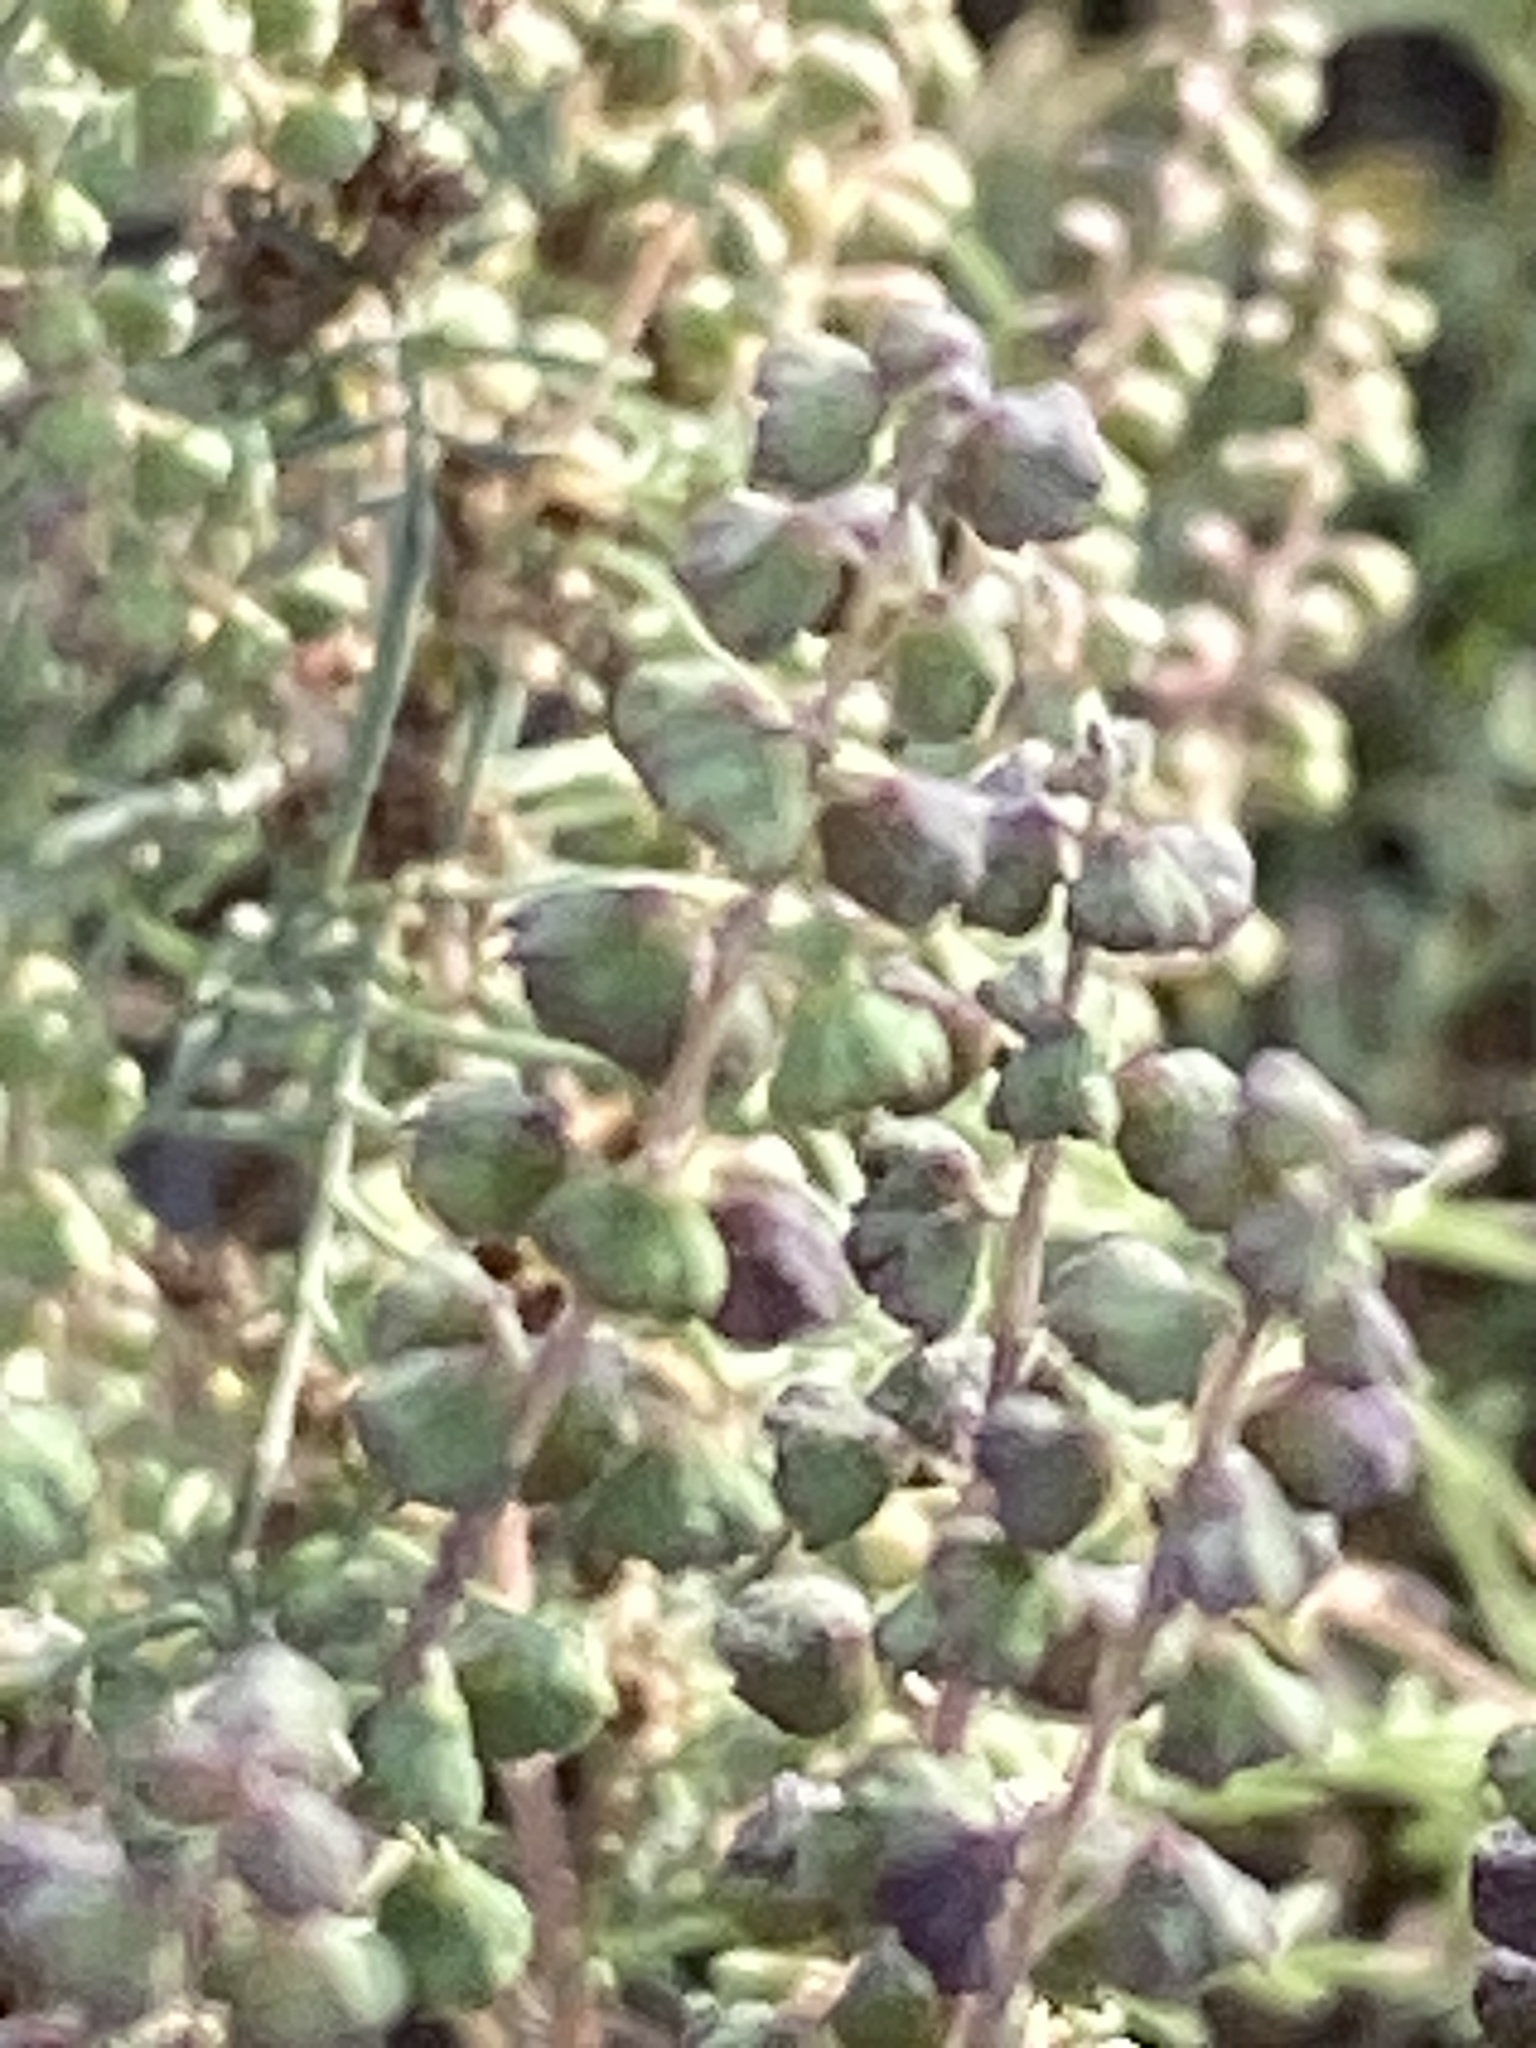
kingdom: Plantae
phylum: Tracheophyta
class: Magnoliopsida
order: Asterales
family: Asteraceae
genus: Ambrosia
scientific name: Ambrosia psilostachya
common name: Perennial ragweed
